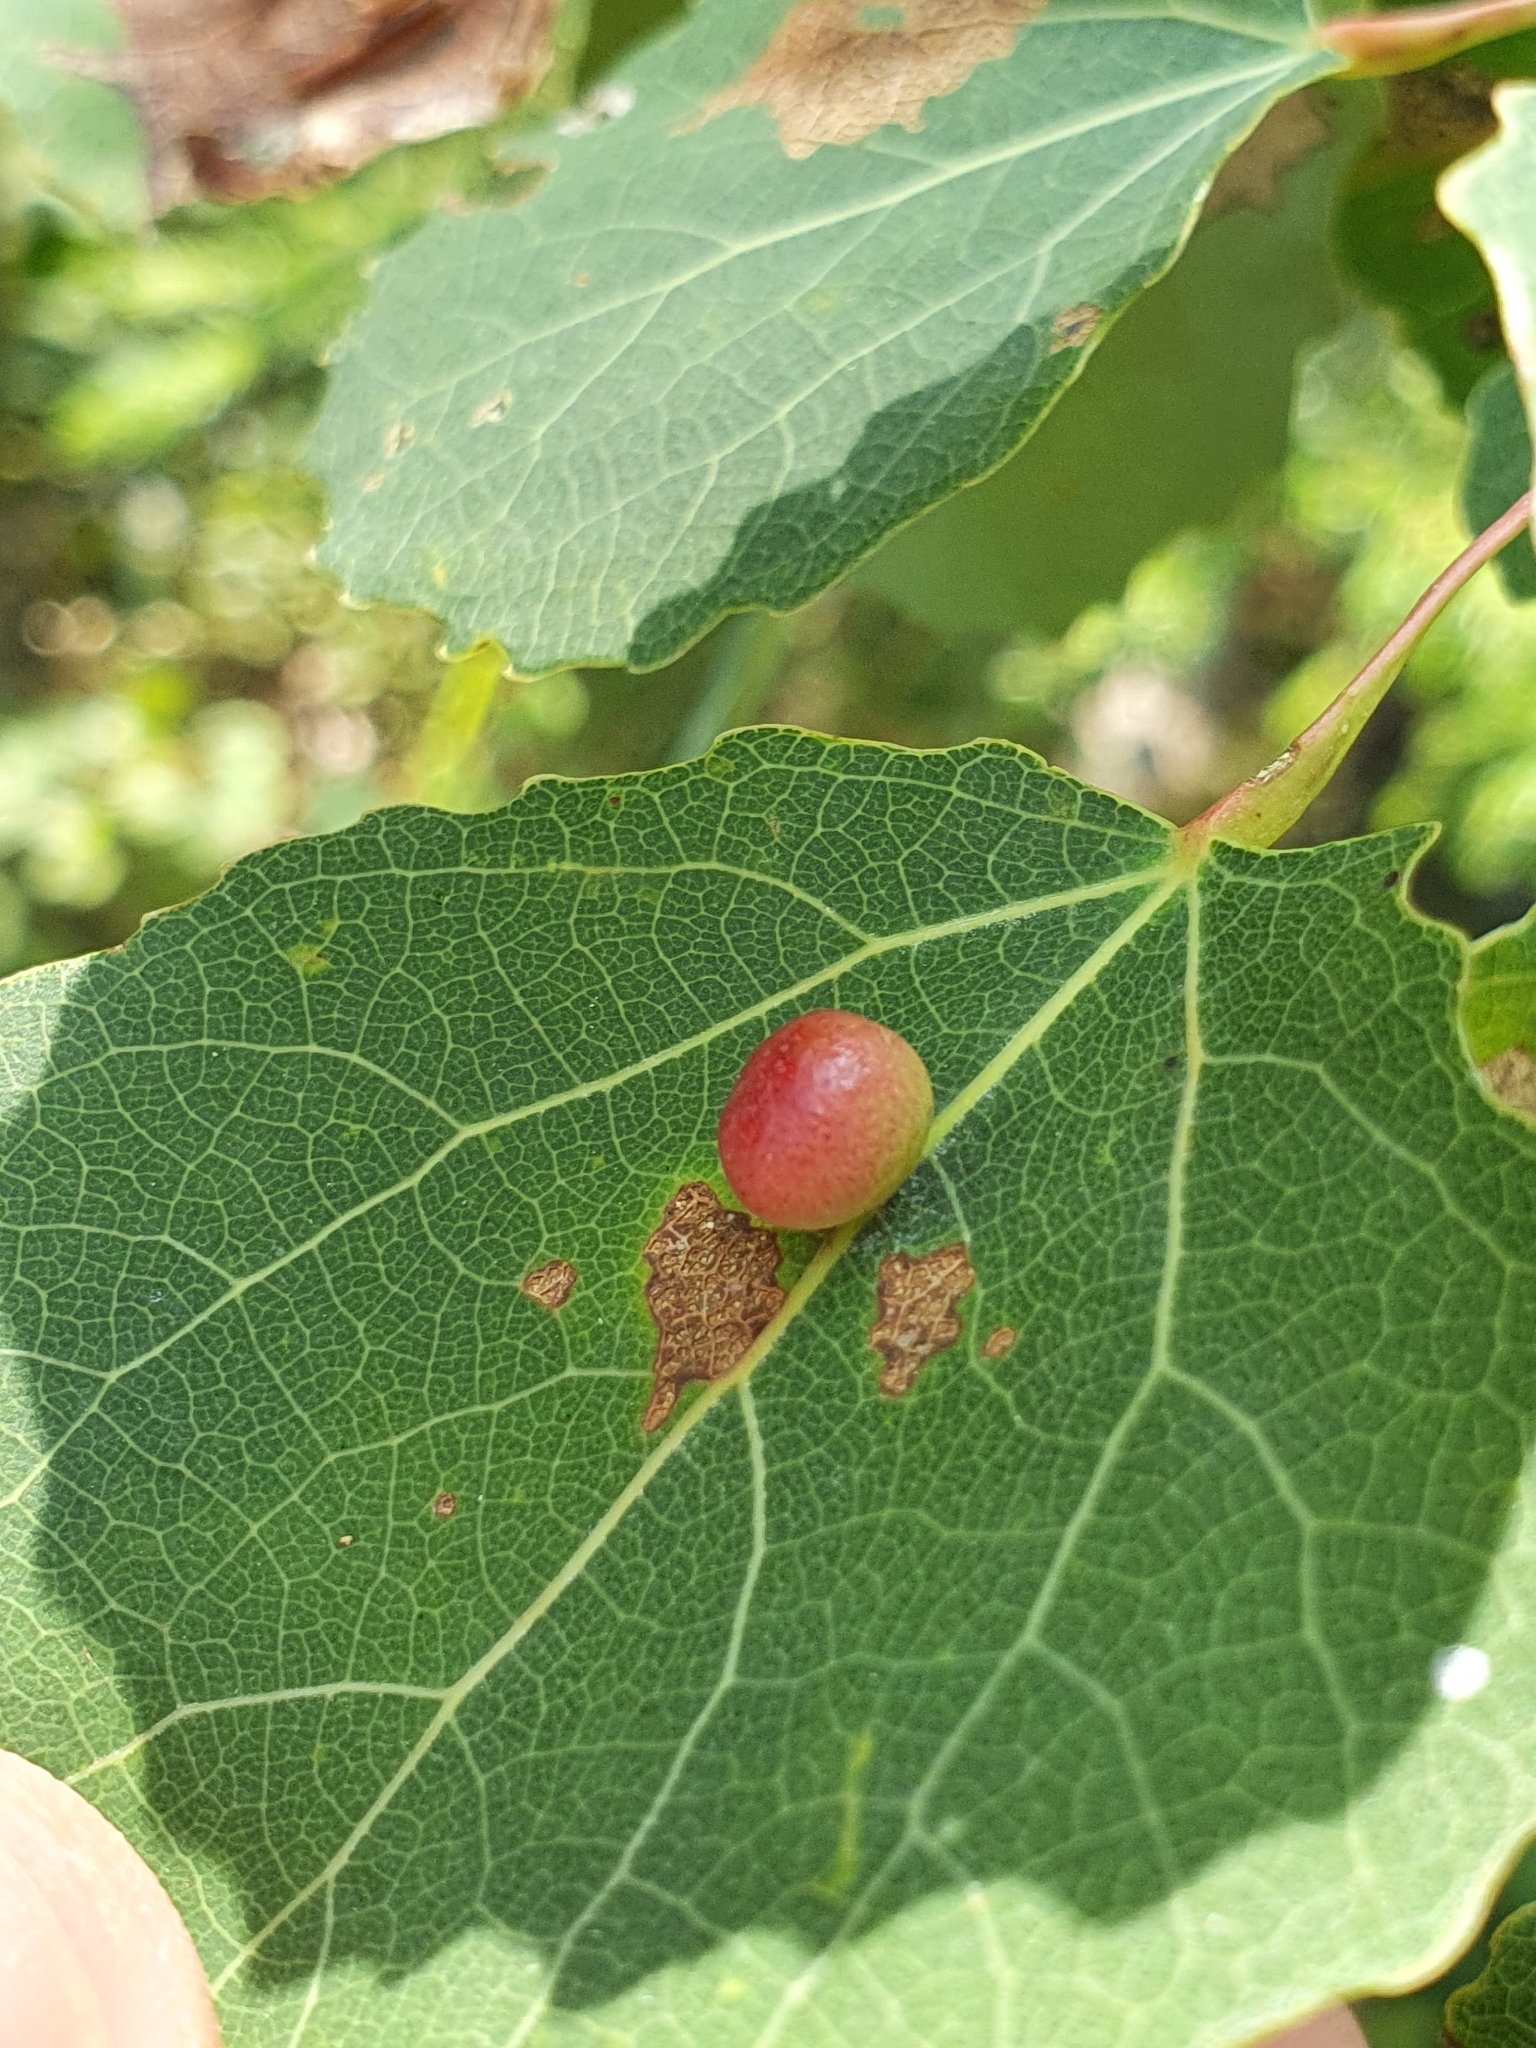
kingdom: Animalia
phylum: Arthropoda
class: Insecta
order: Diptera
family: Cecidomyiidae
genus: Harmandiola
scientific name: Harmandiola tremulae
